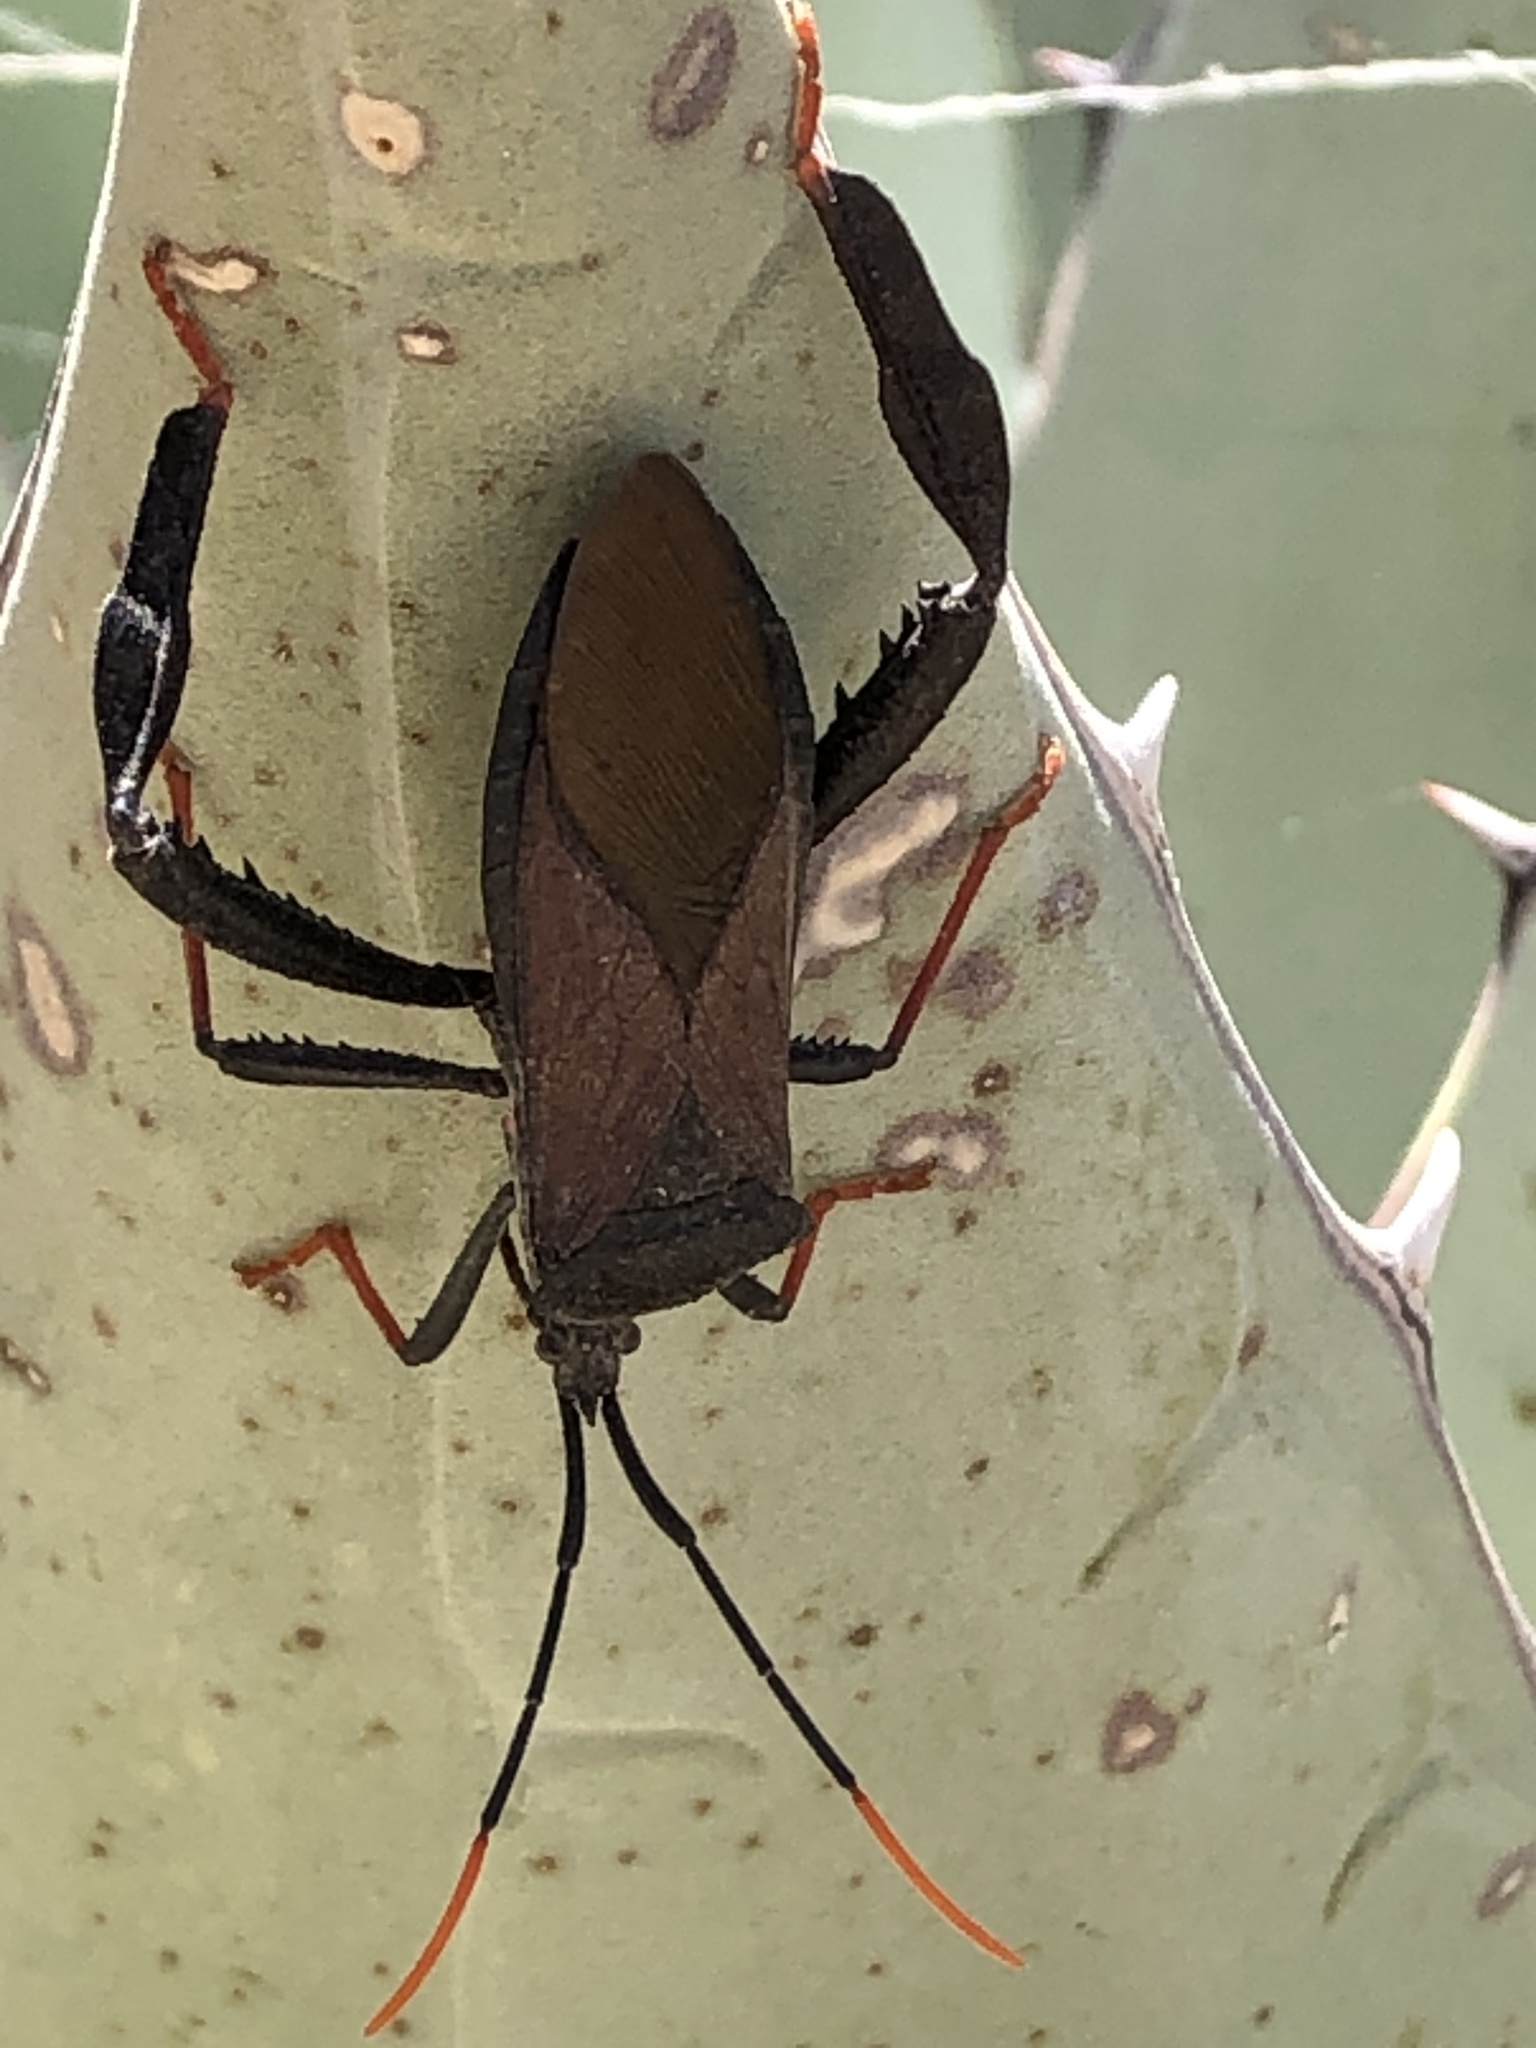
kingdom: Animalia
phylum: Arthropoda
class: Insecta
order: Hemiptera
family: Coreidae
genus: Acanthocephala
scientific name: Acanthocephala thomasi
